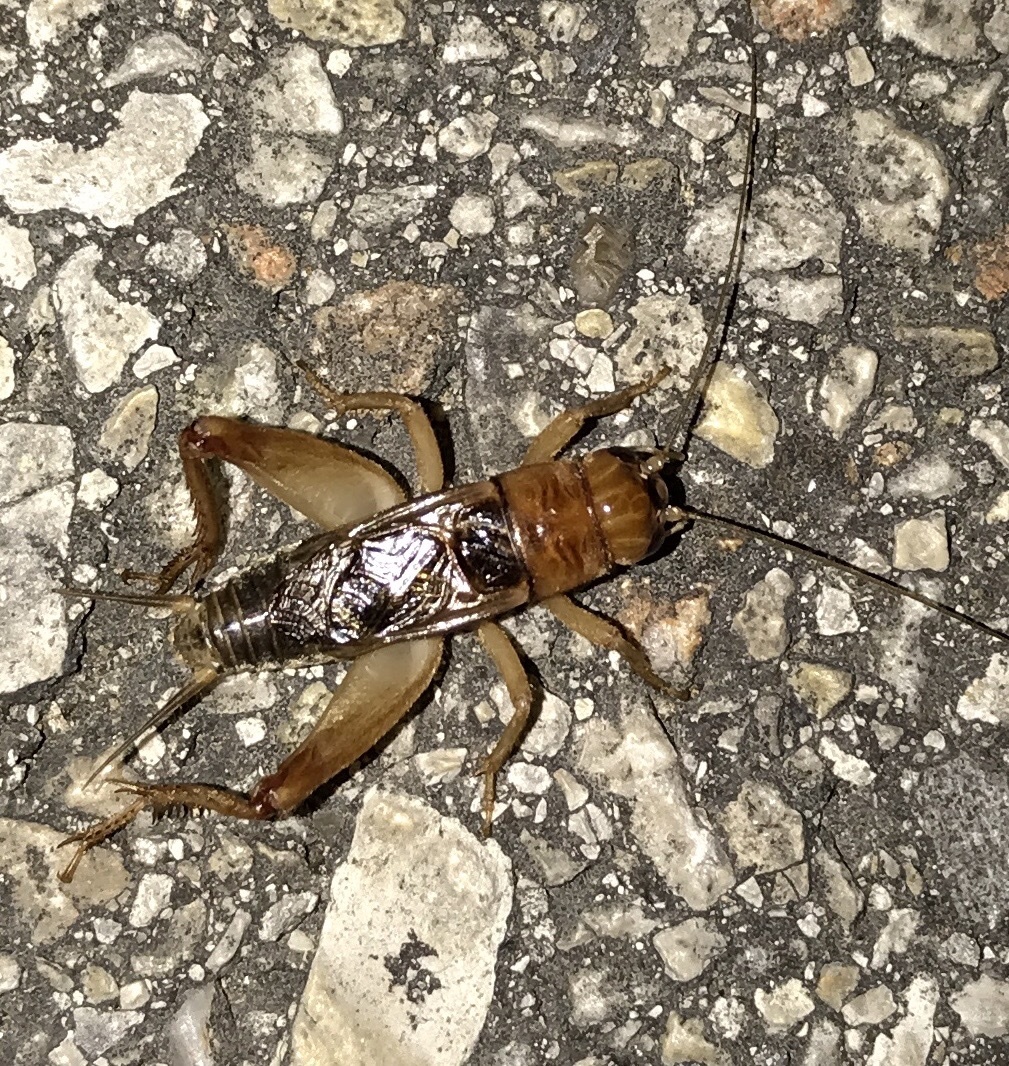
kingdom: Animalia
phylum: Arthropoda
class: Insecta
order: Orthoptera
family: Gryllidae
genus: Anurogryllus
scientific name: Anurogryllus arboreus
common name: Common short-tailed cricket
